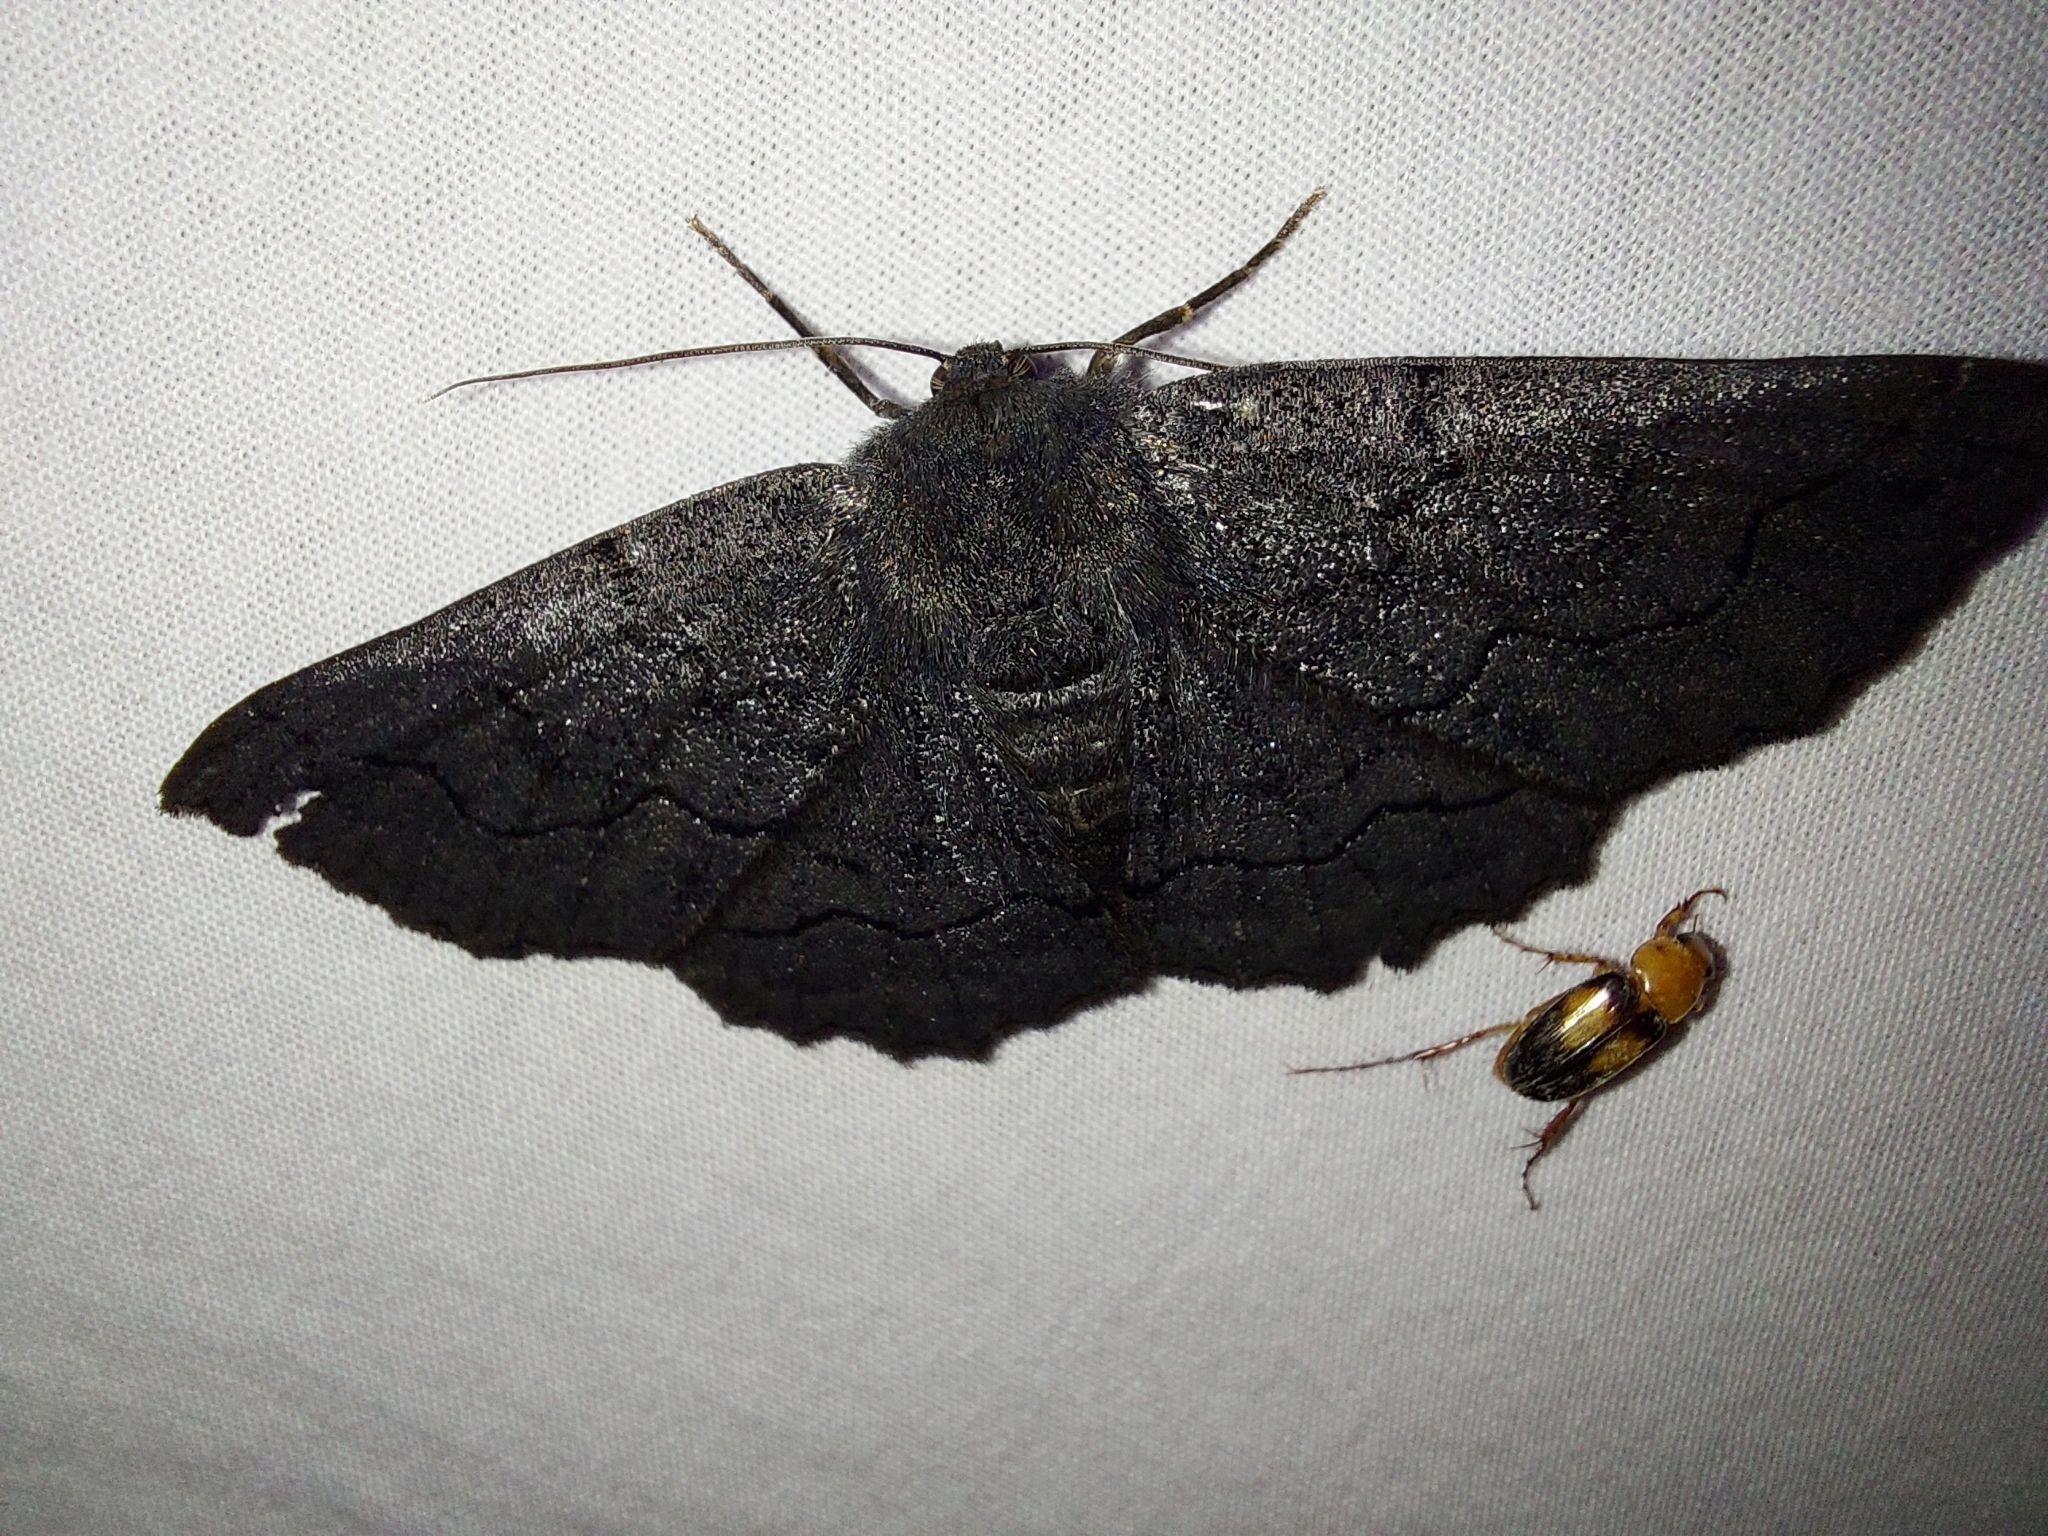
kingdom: Animalia
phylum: Arthropoda
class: Insecta
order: Lepidoptera
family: Geometridae
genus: Melanodes
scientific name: Melanodes anthracitaria
